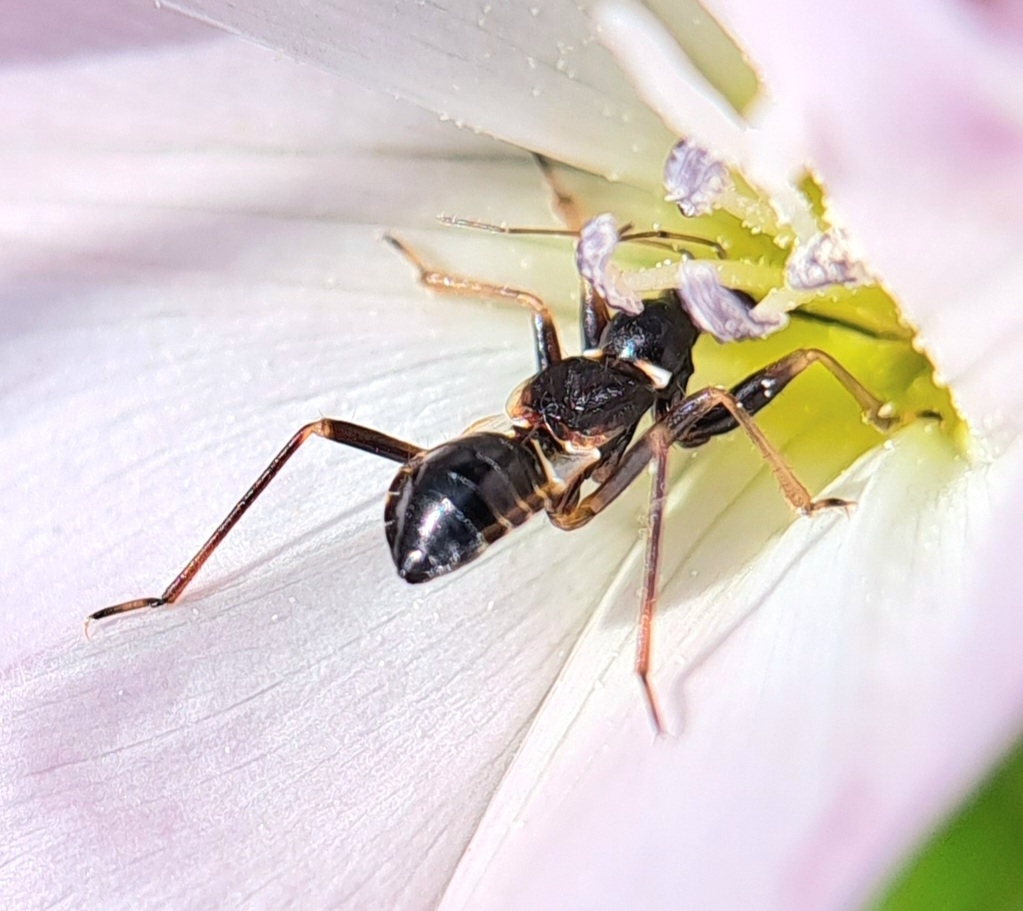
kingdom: Animalia
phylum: Arthropoda
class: Insecta
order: Hemiptera
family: Nabidae
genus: Himacerus
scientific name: Himacerus mirmicoides
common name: Ant damsel bug
